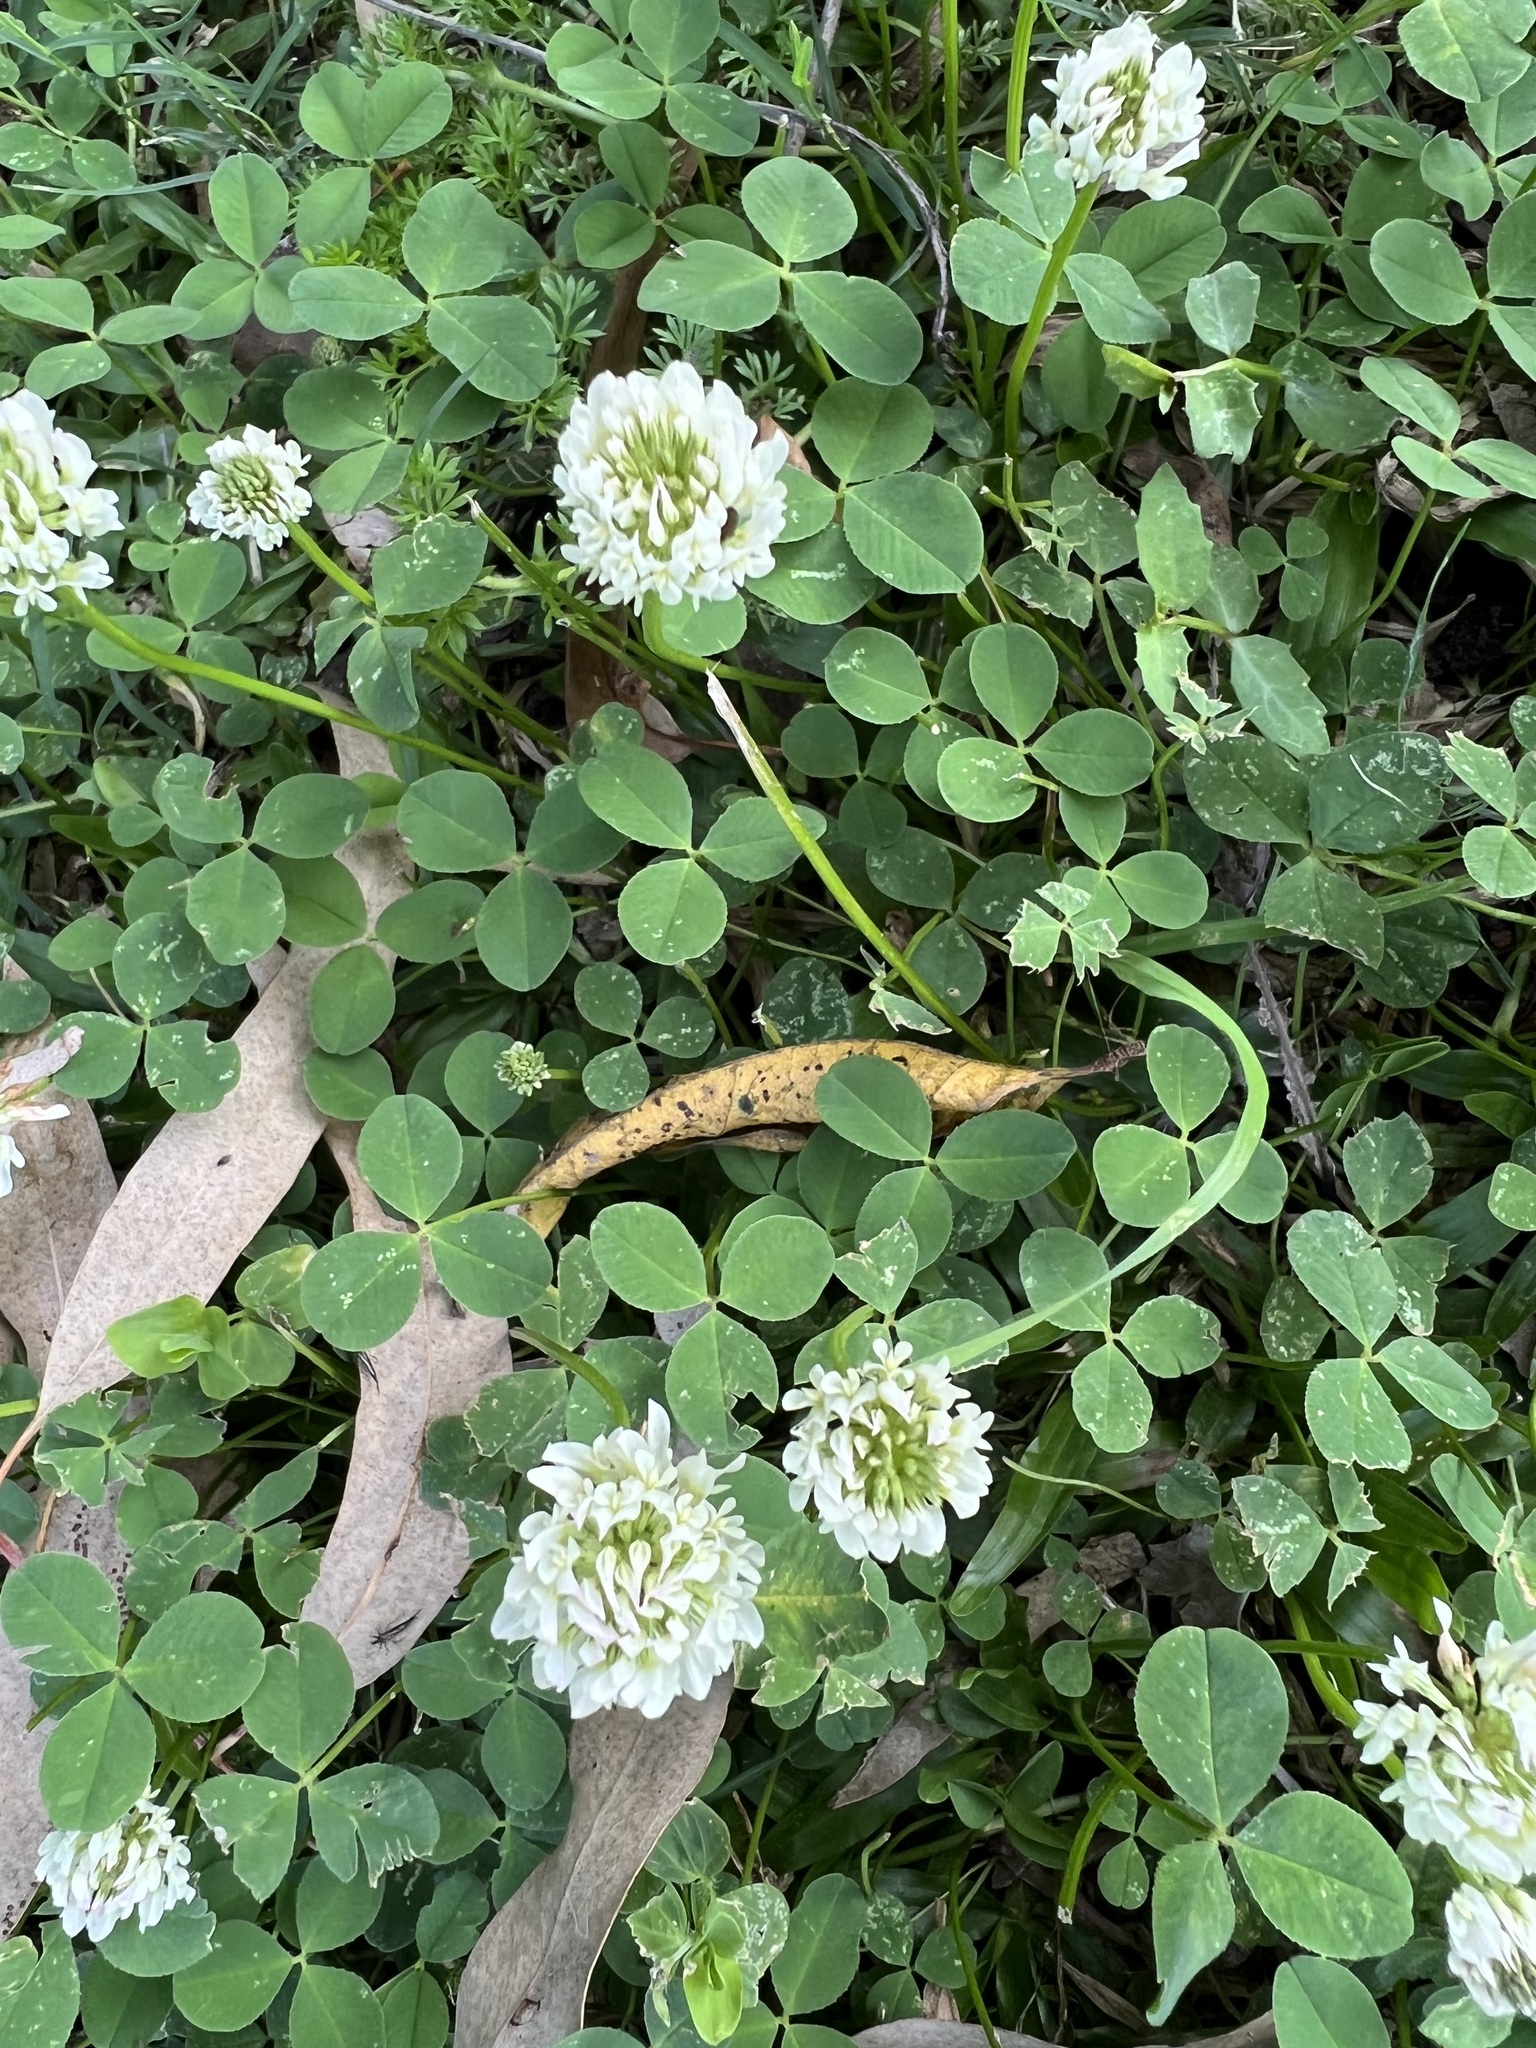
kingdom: Plantae
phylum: Tracheophyta
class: Magnoliopsida
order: Fabales
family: Fabaceae
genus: Trifolium
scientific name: Trifolium repens
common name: White clover
